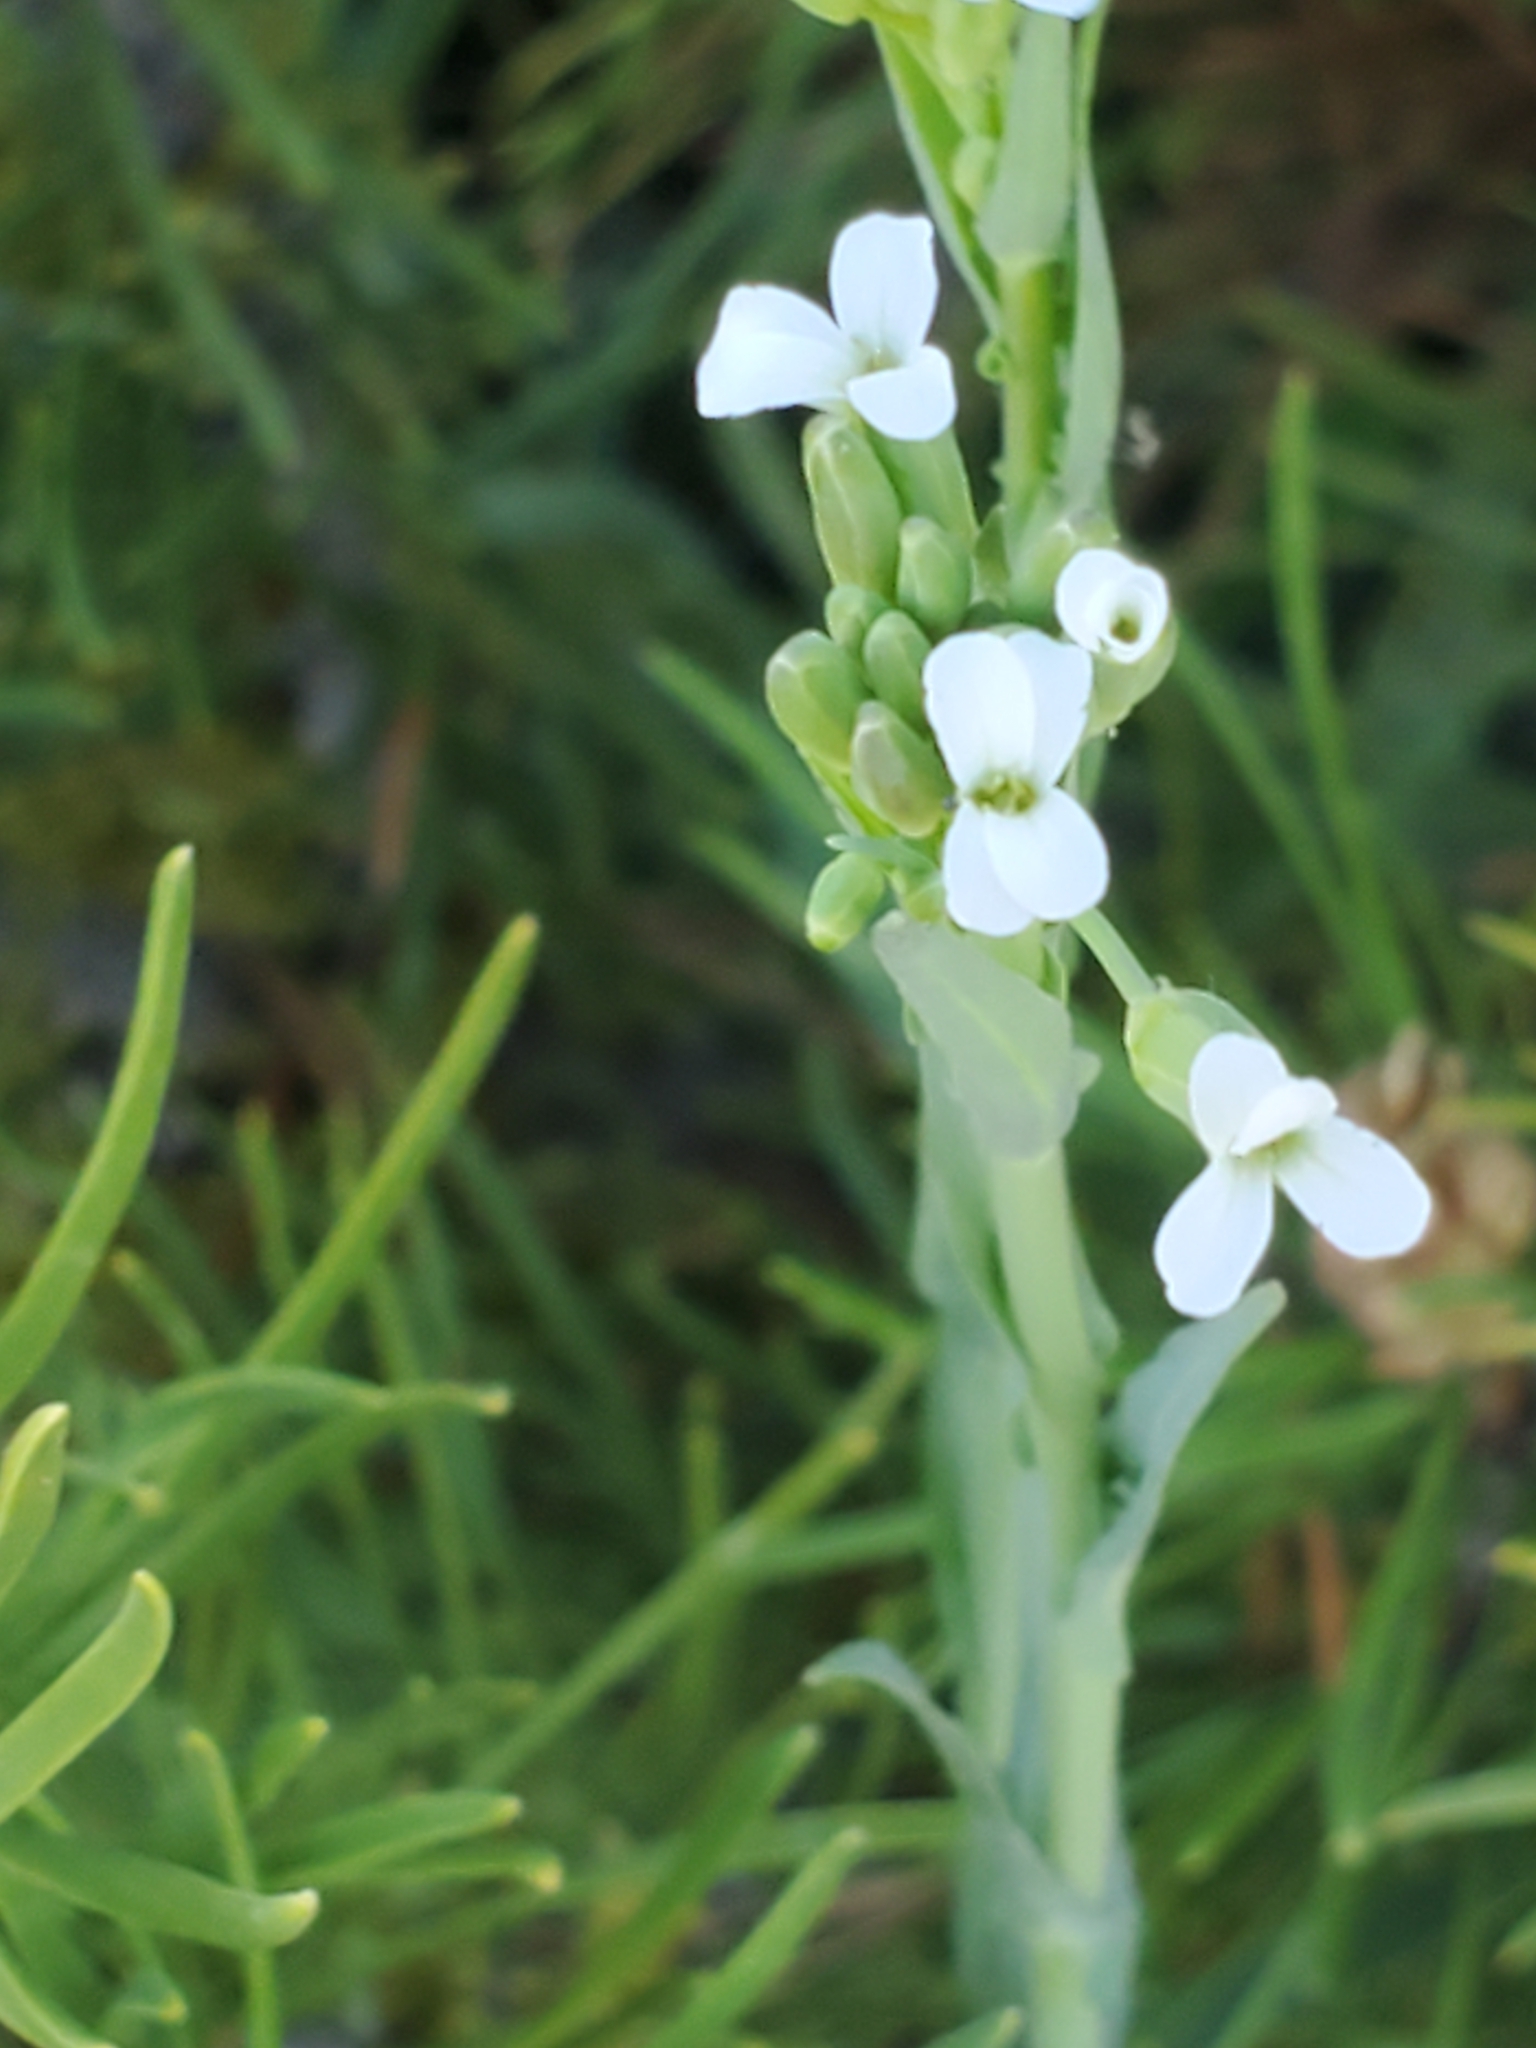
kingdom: Plantae
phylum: Tracheophyta
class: Magnoliopsida
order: Brassicales
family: Brassicaceae
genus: Boechera
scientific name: Boechera stricta
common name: Canadian rockcress
